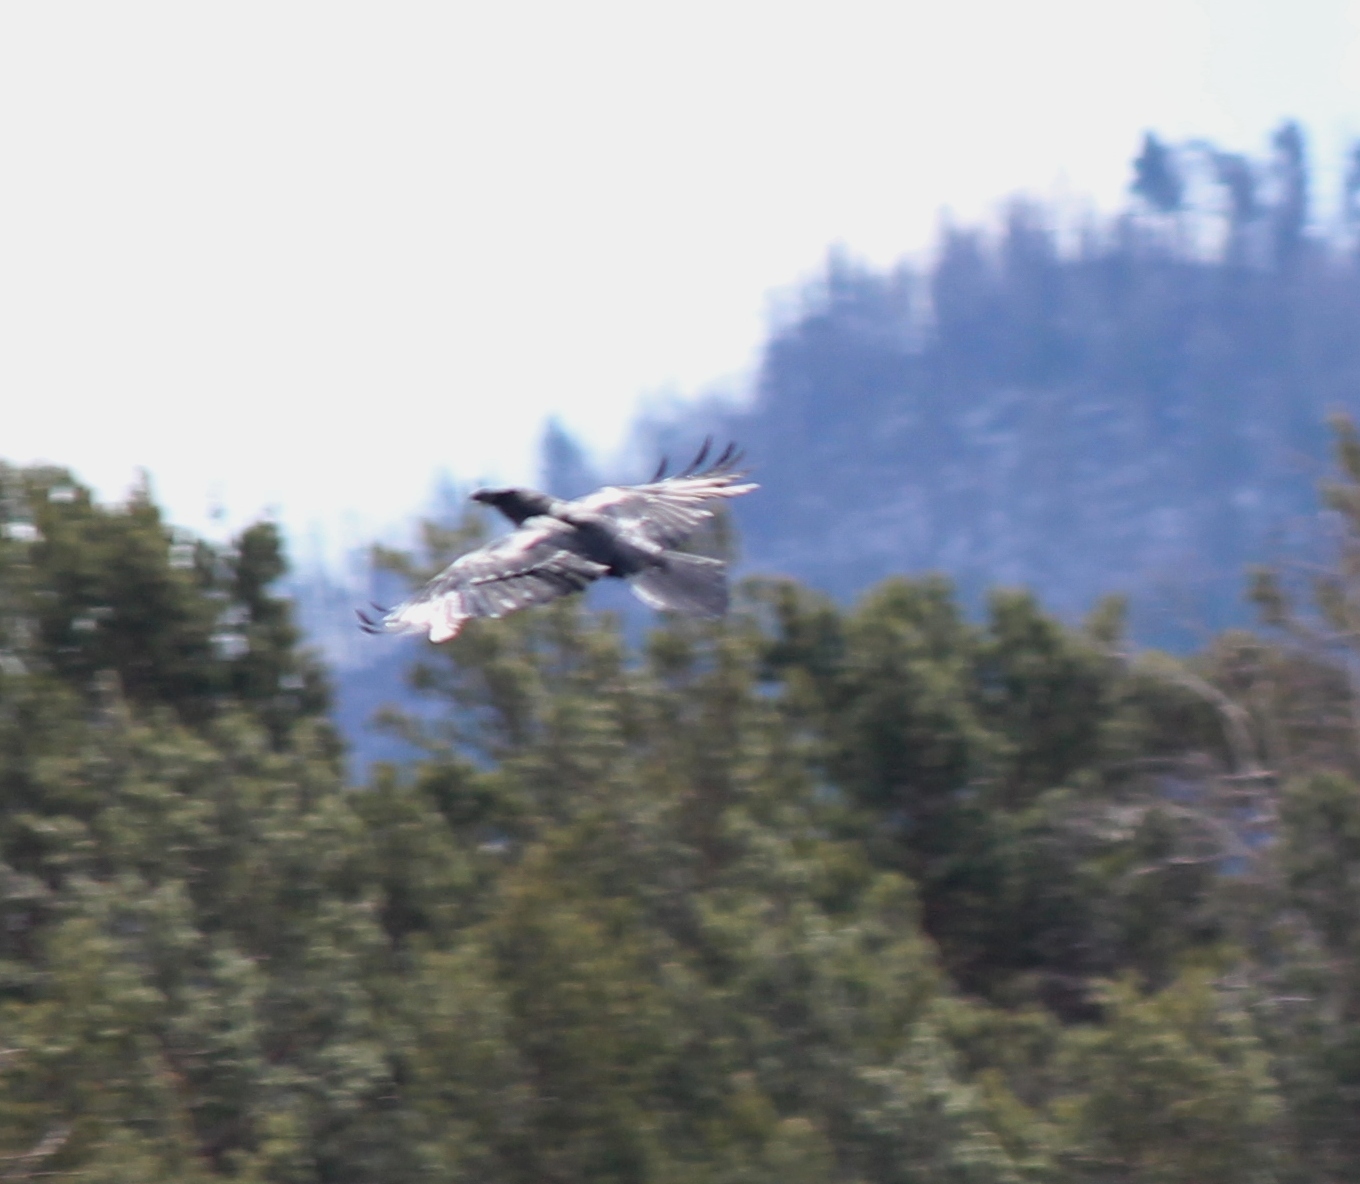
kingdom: Animalia
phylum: Chordata
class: Aves
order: Passeriformes
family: Corvidae
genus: Corvus
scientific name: Corvus corax
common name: Common raven
